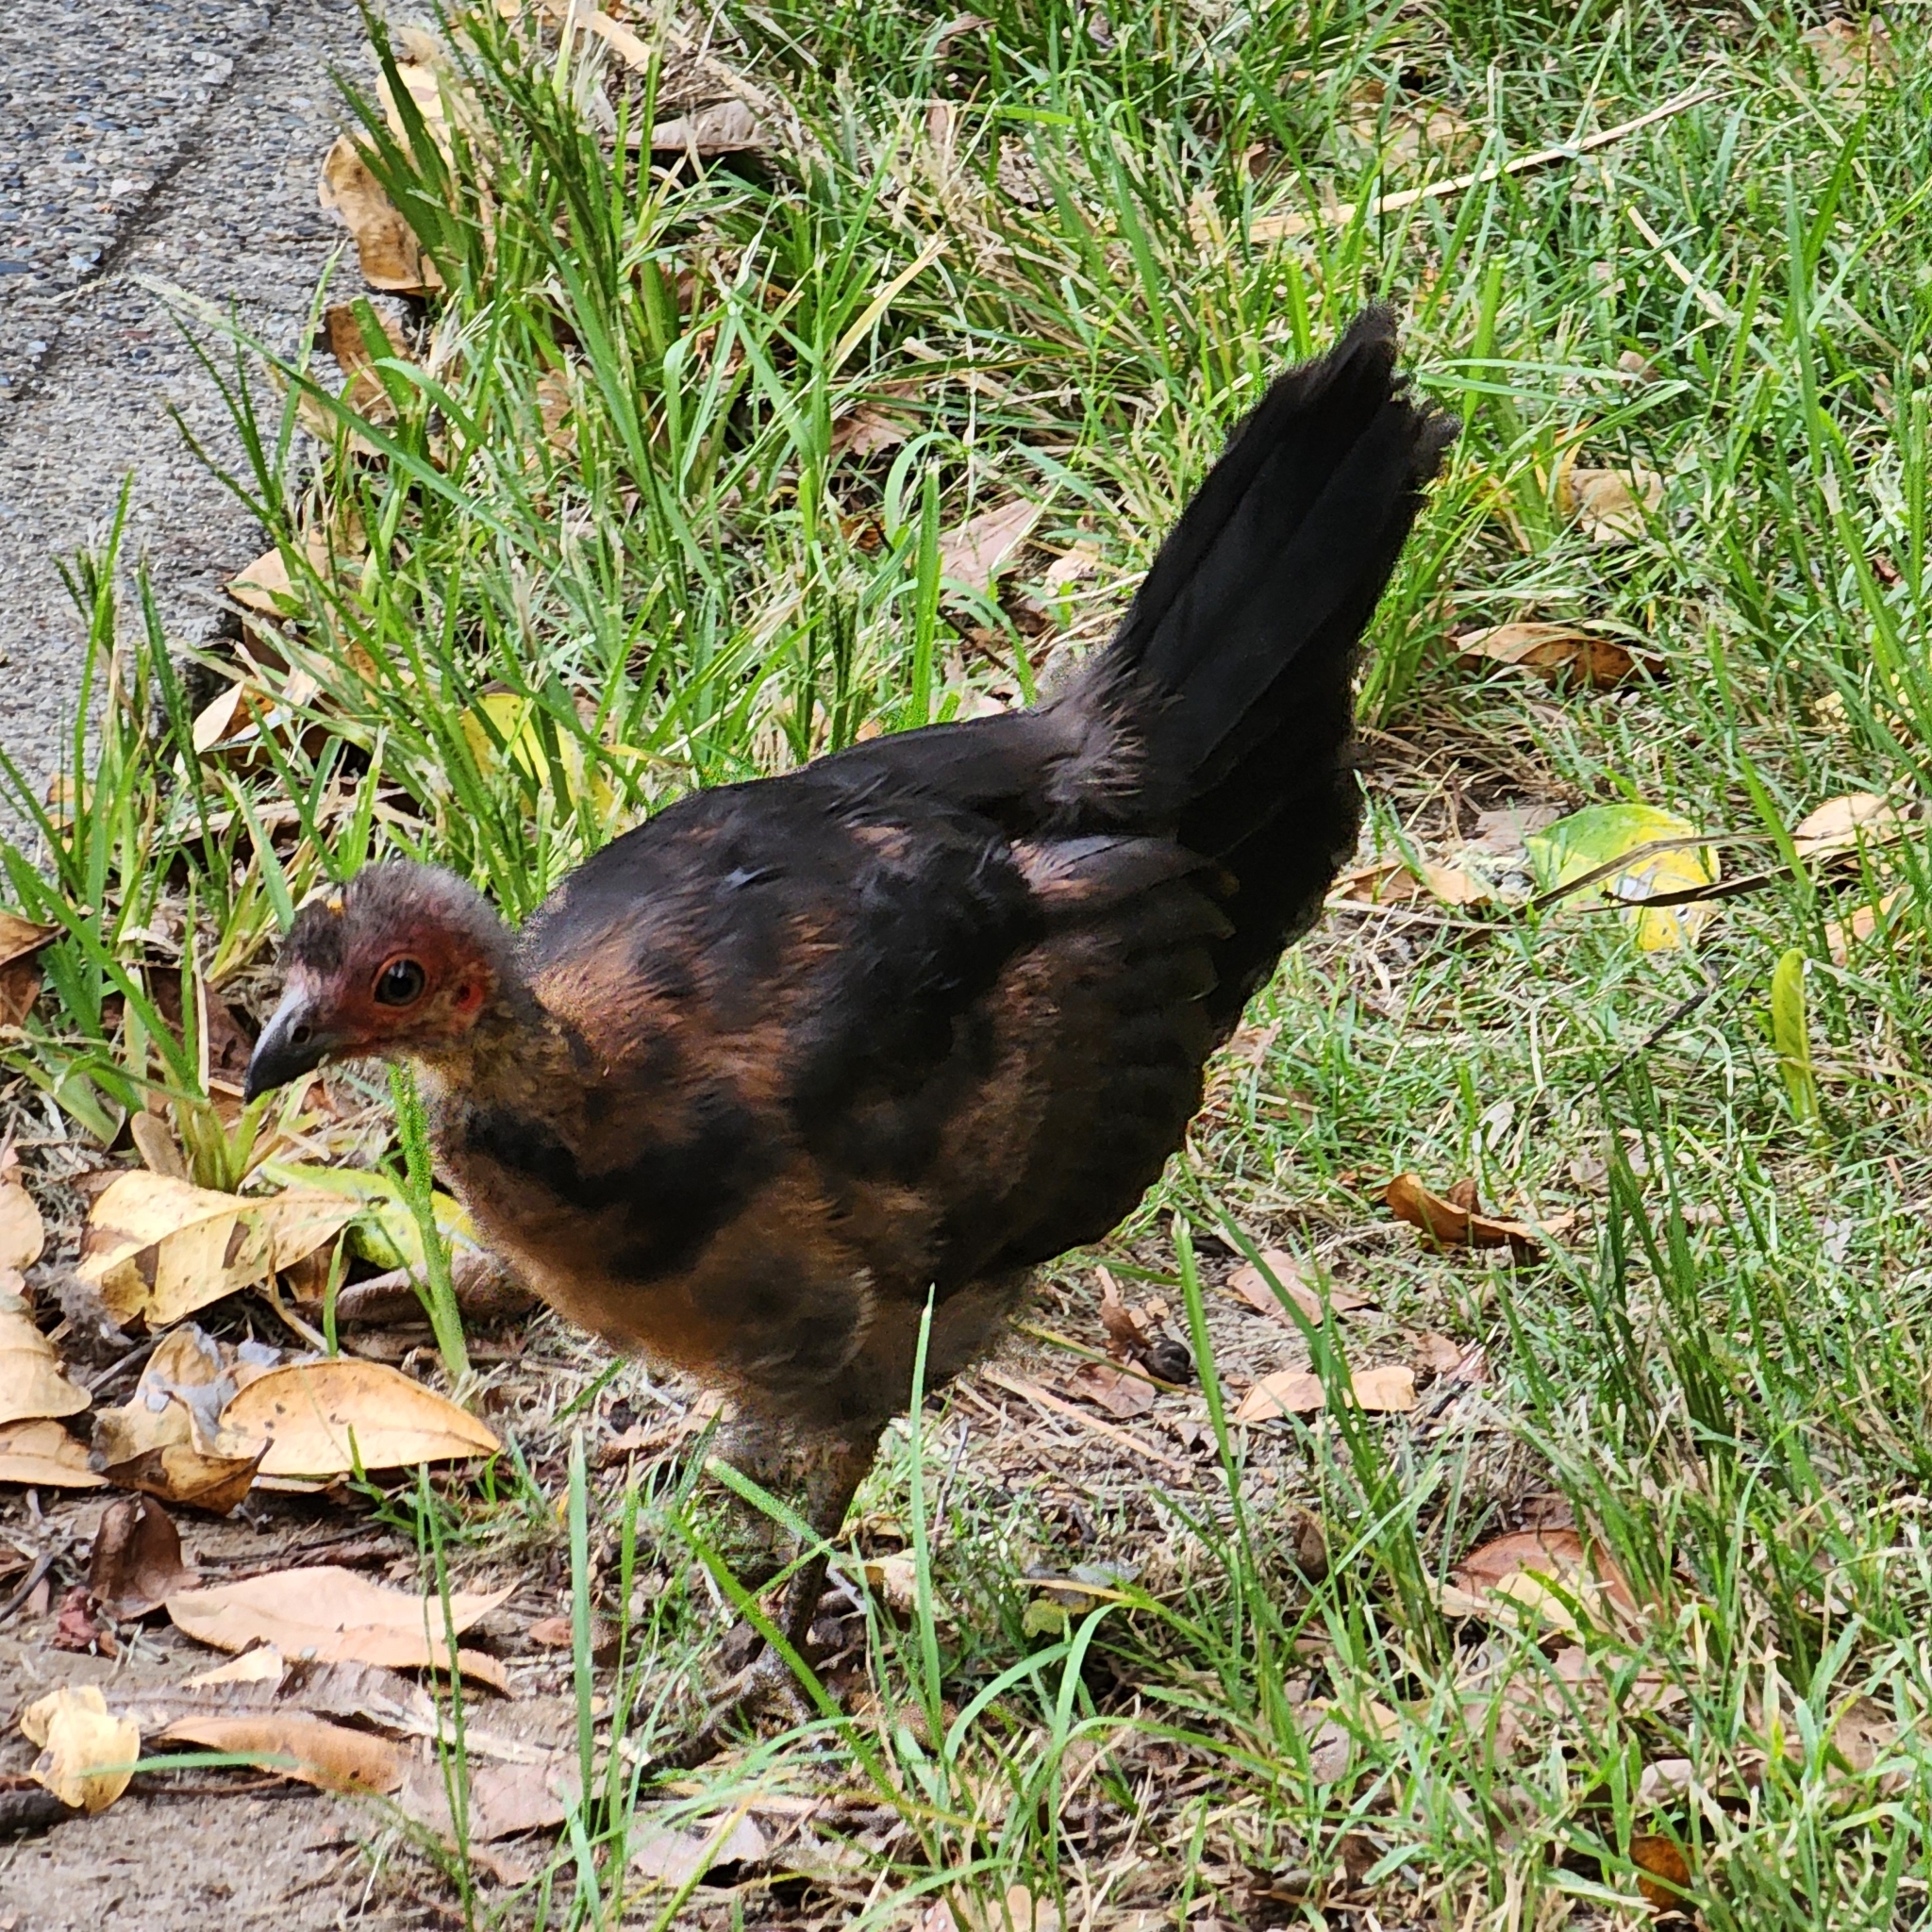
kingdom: Animalia
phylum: Chordata
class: Aves
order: Galliformes
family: Megapodiidae
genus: Alectura
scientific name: Alectura lathami
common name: Australian brushturkey
